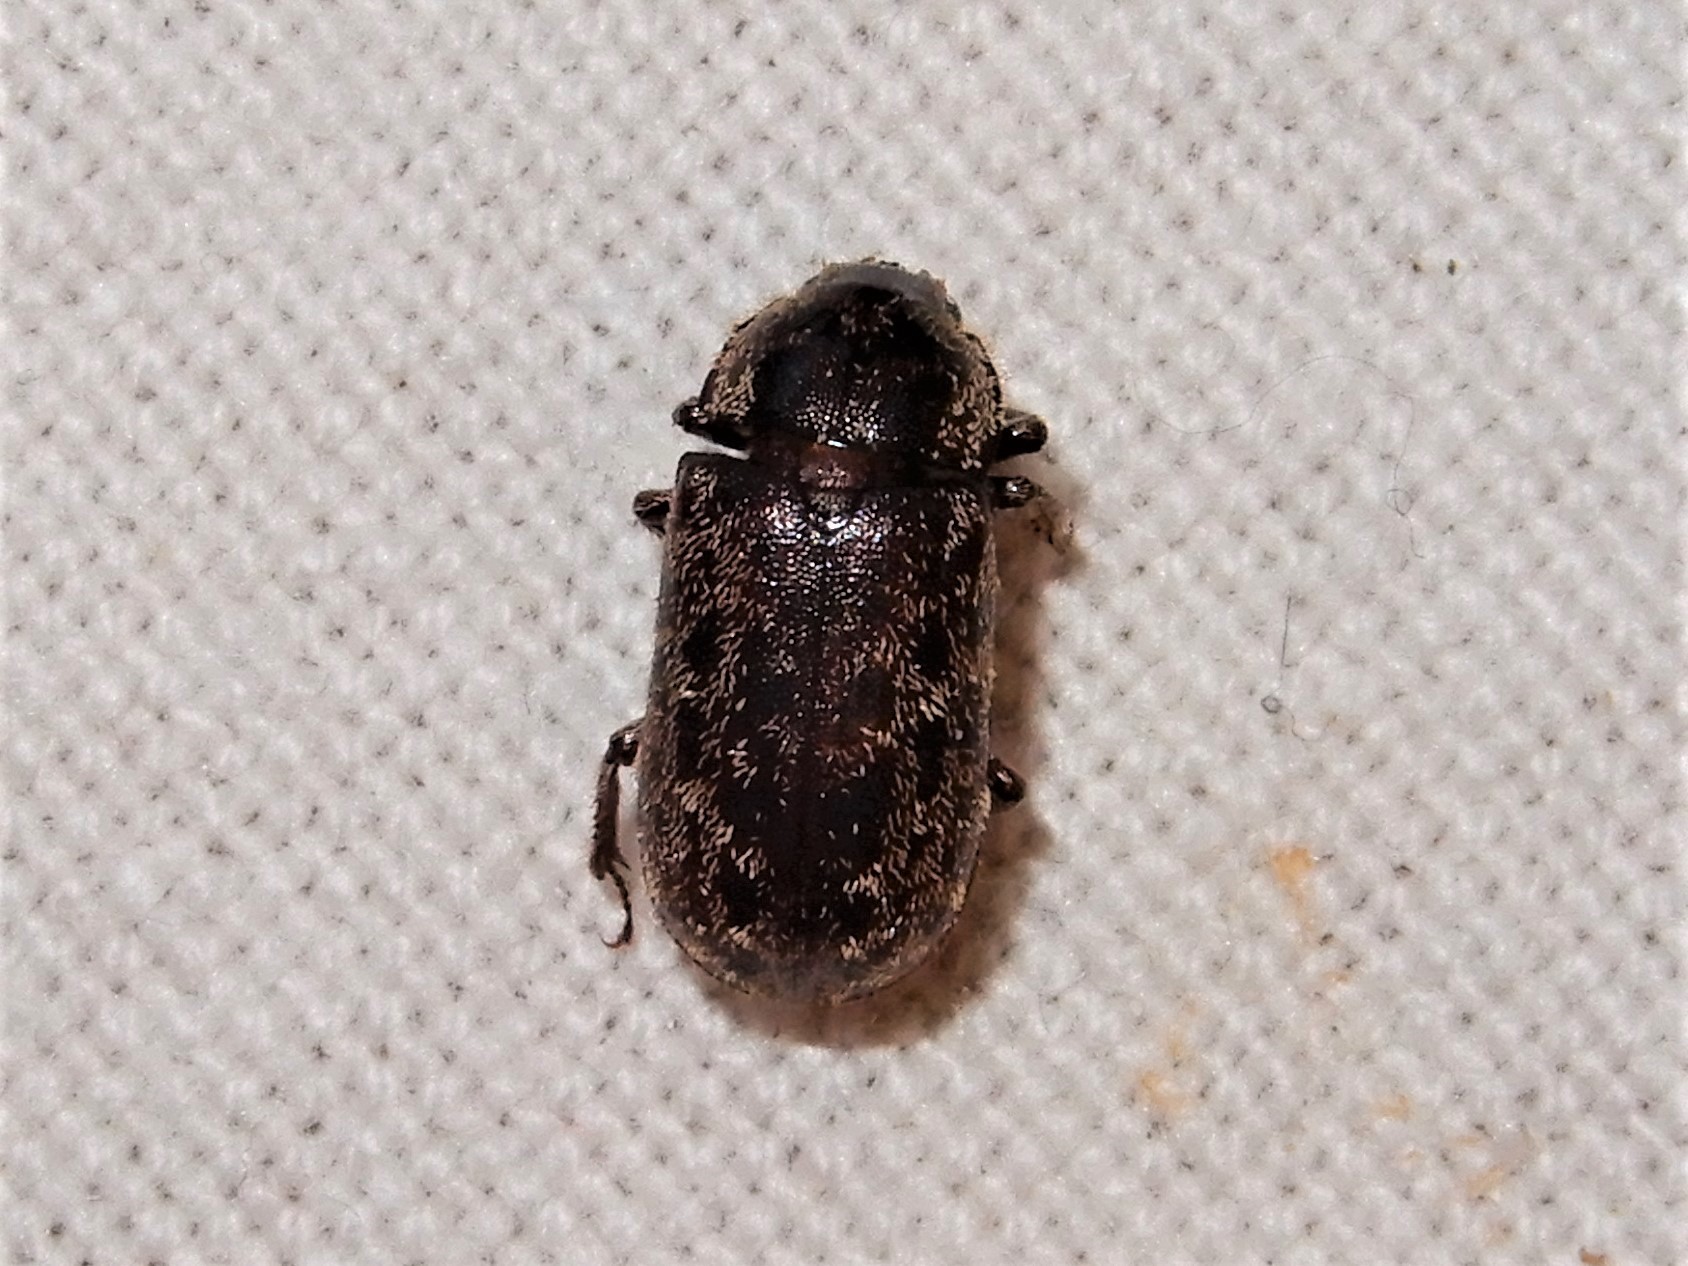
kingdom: Animalia
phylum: Arthropoda
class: Insecta
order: Coleoptera
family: Lucanidae
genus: Mitophyllus
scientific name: Mitophyllus irroratus
